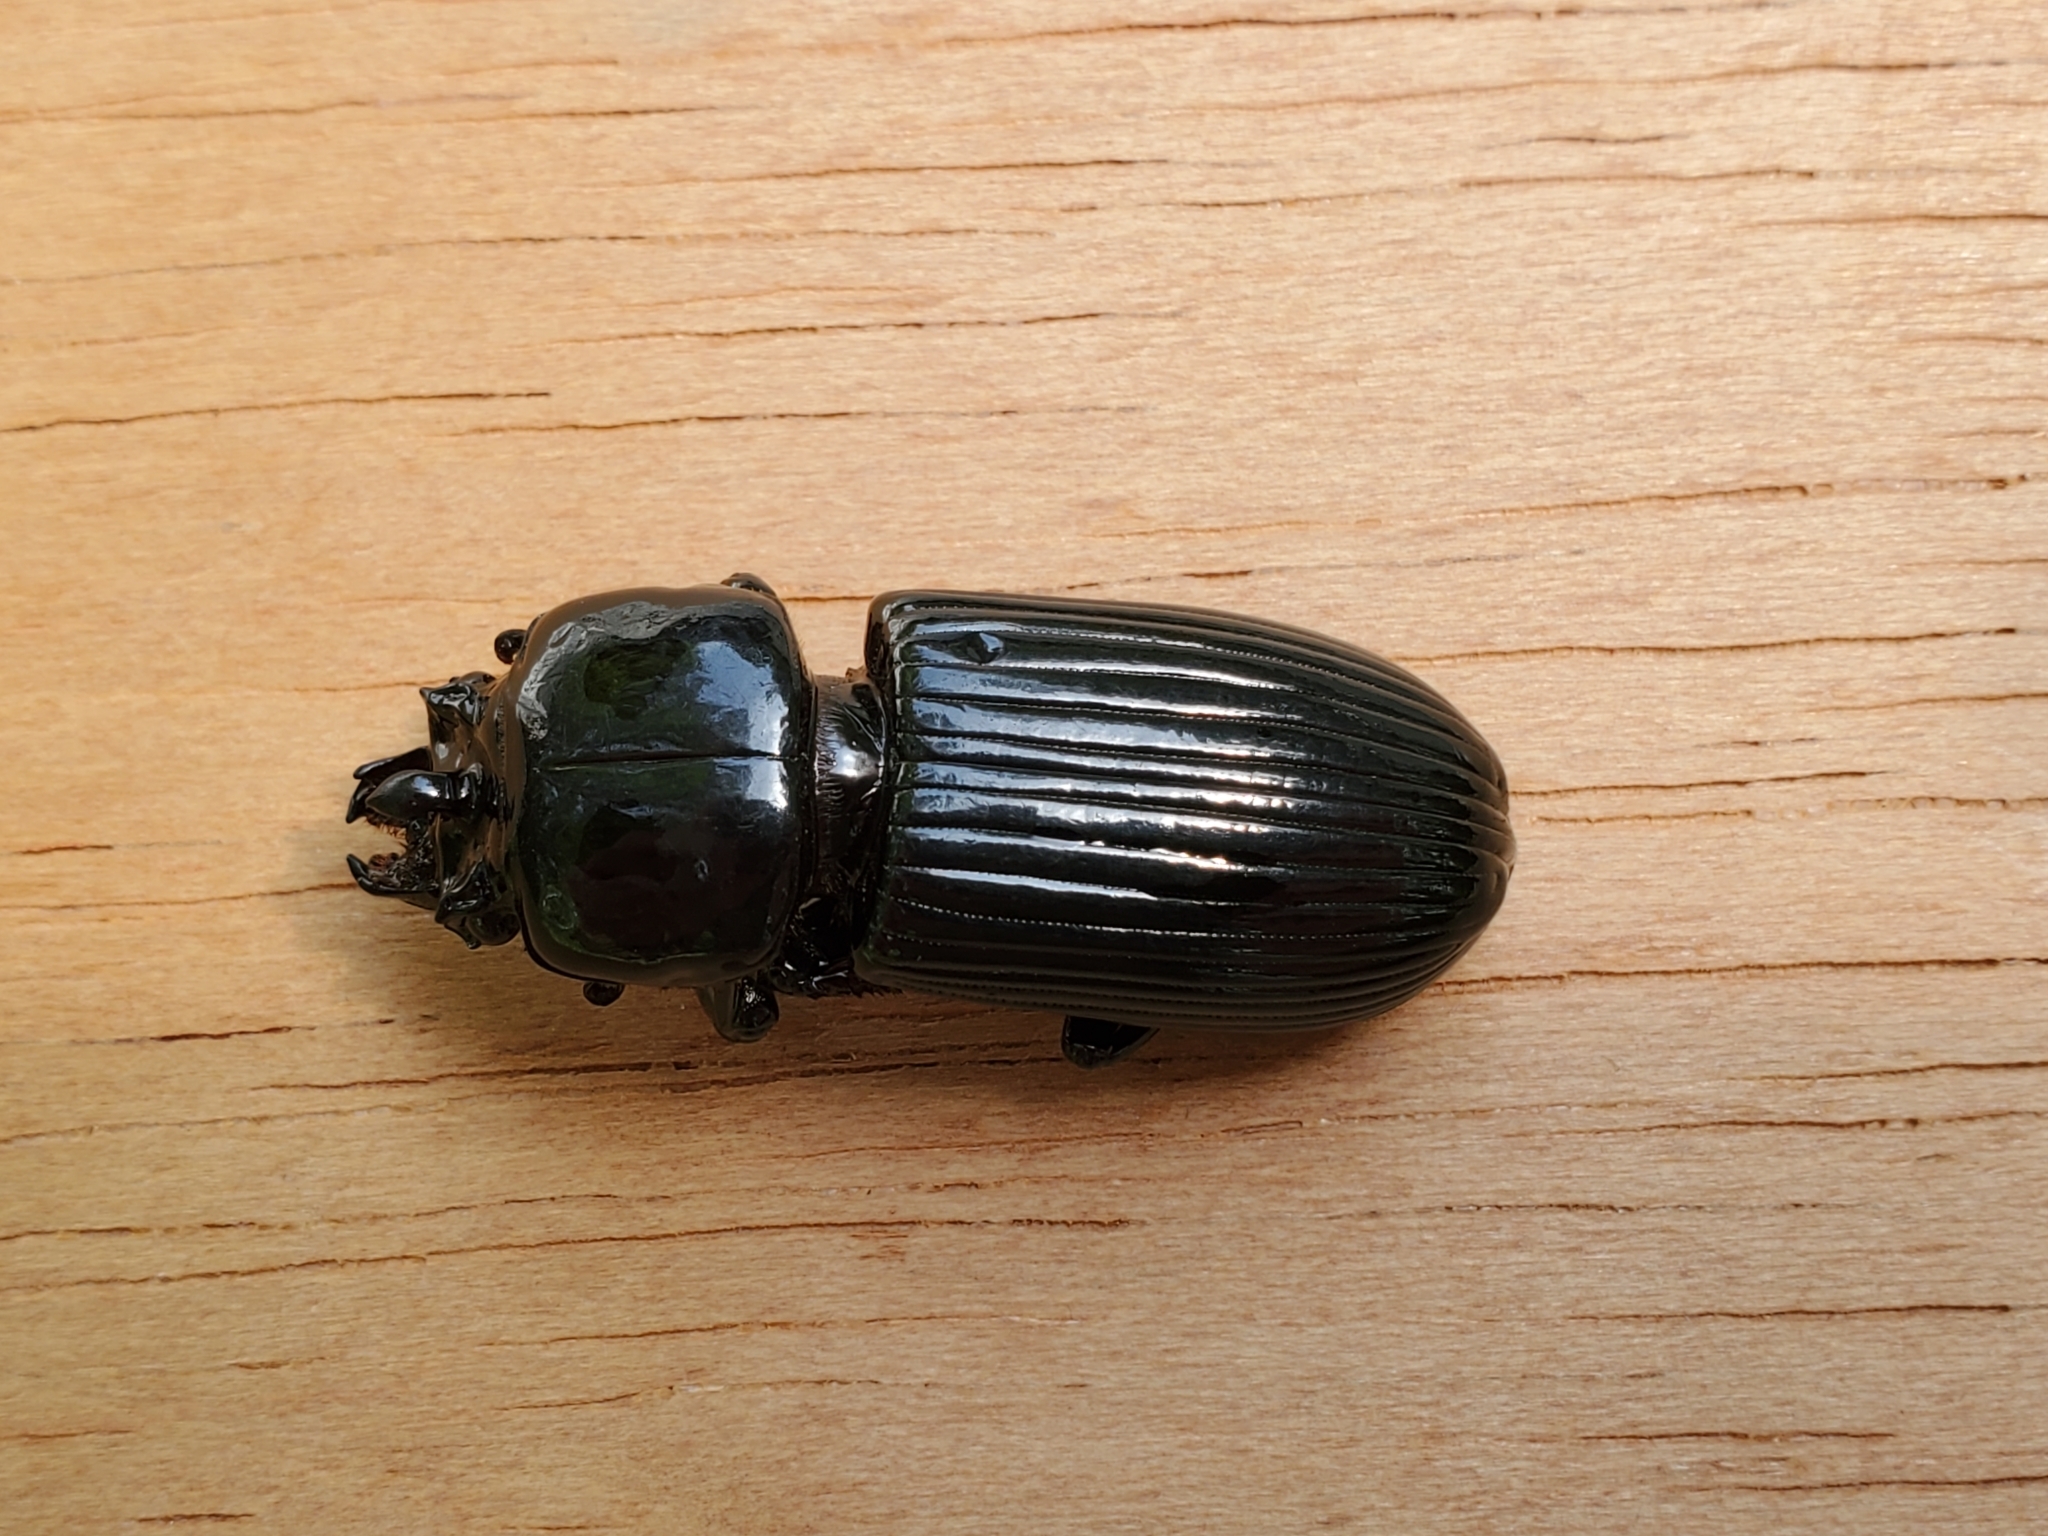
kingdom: Animalia
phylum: Arthropoda
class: Insecta
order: Coleoptera
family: Passalidae
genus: Odontotaenius
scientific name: Odontotaenius disjunctus
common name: Patent leather beetle
